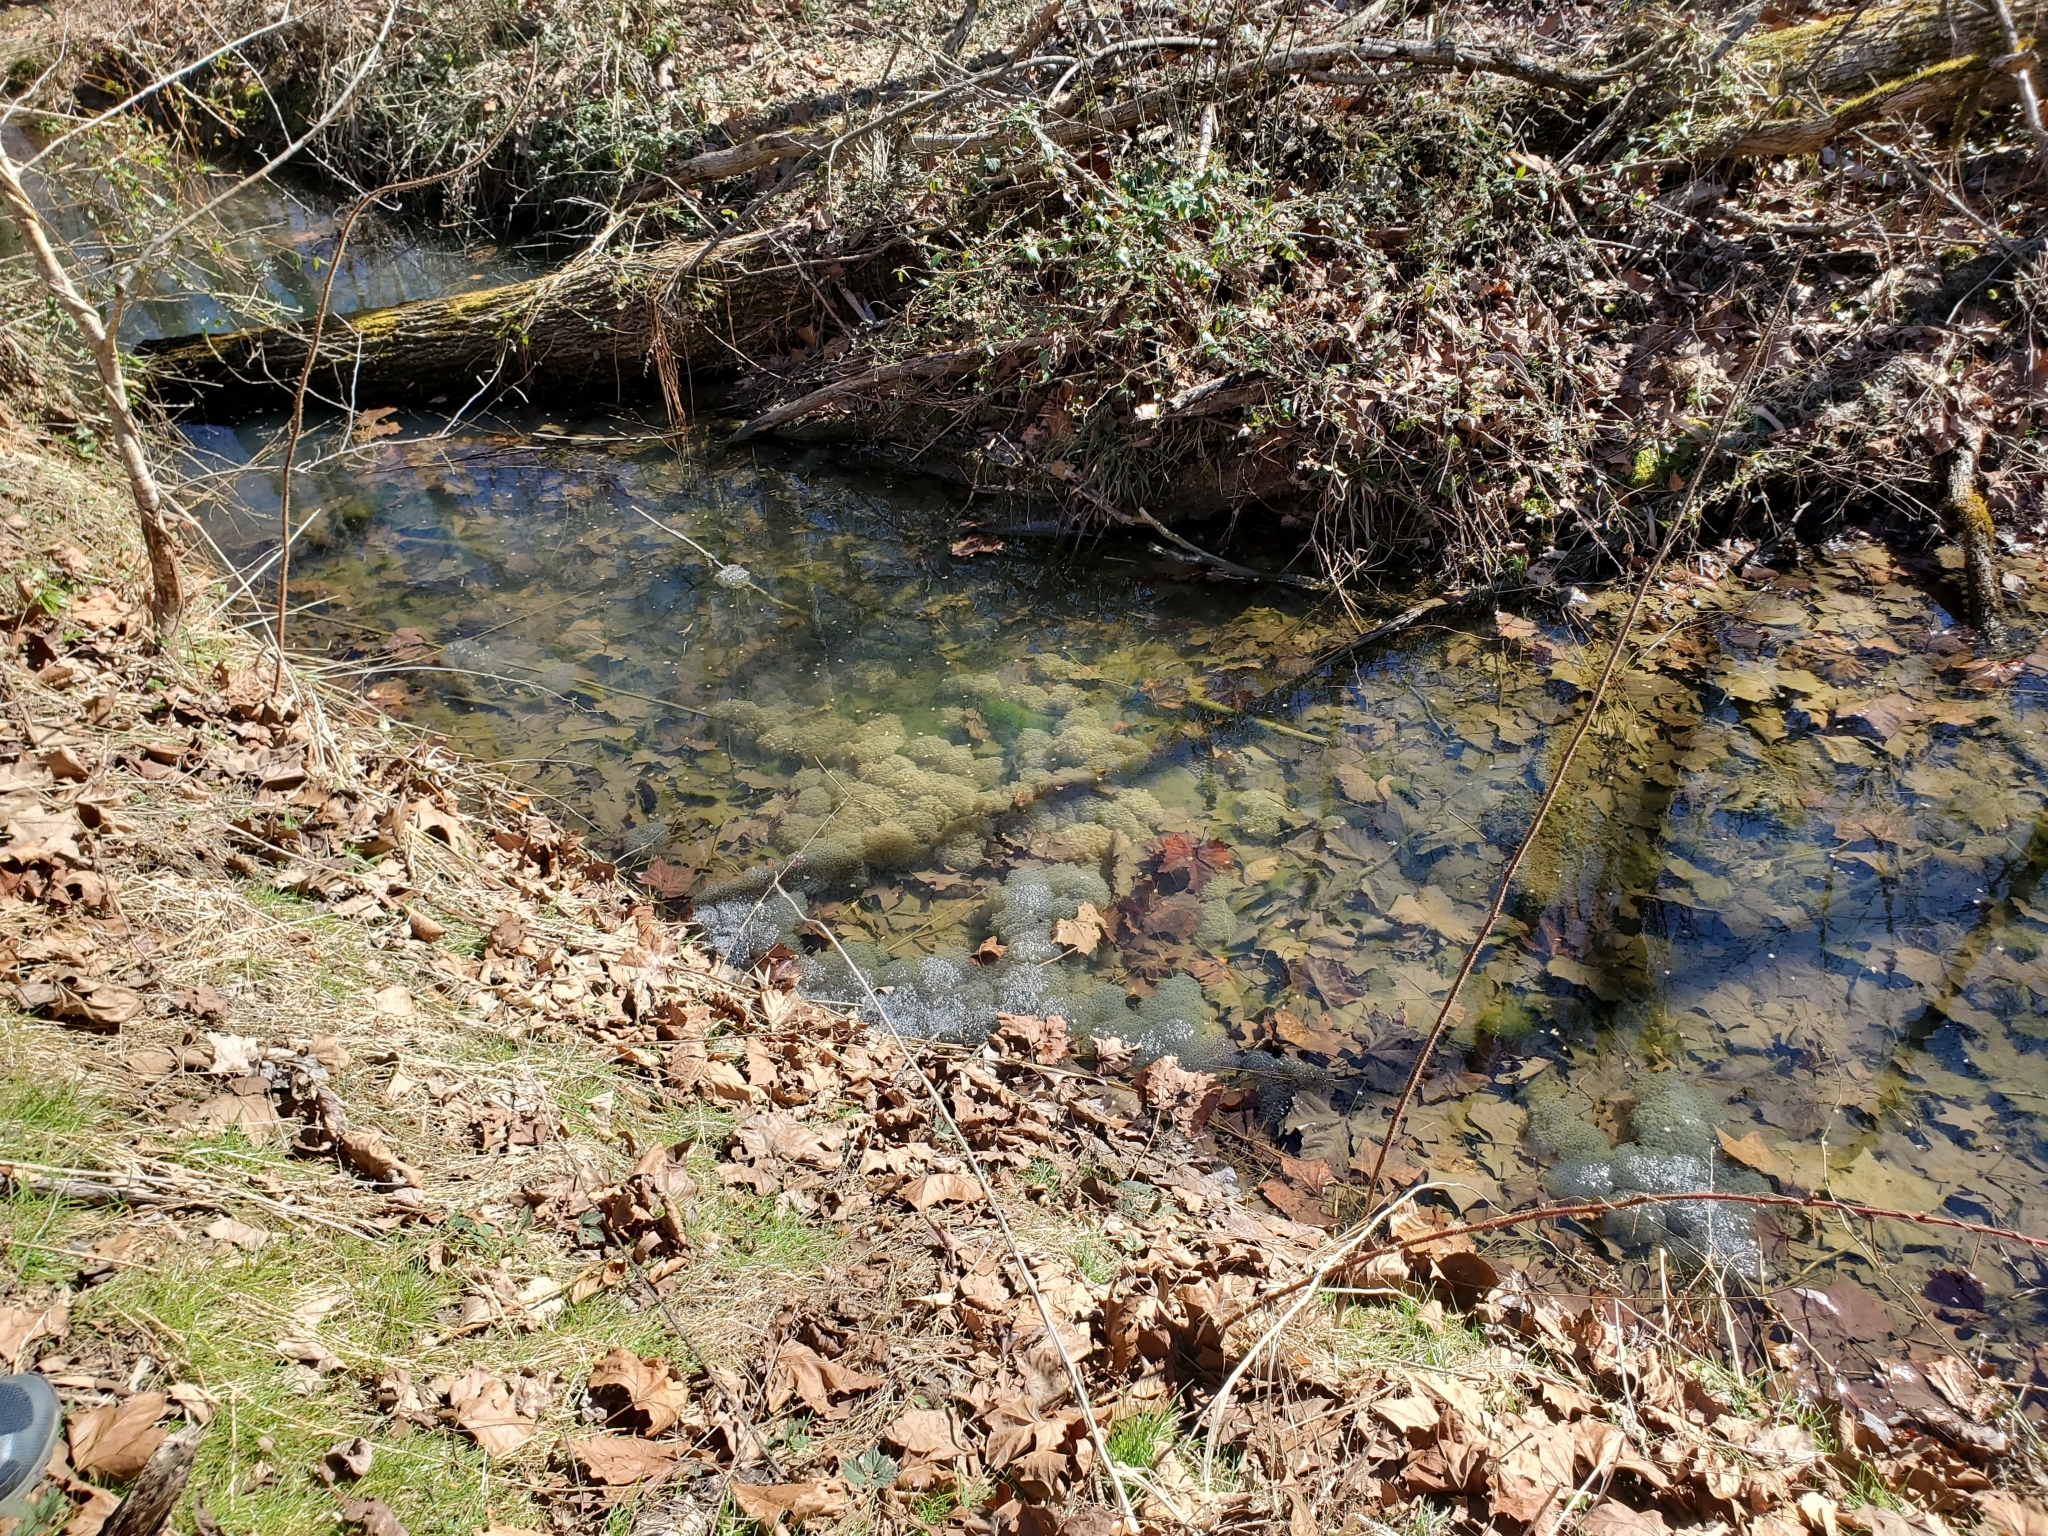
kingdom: Animalia
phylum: Chordata
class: Amphibia
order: Anura
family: Ranidae
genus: Lithobates
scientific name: Lithobates sylvaticus
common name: Wood frog
